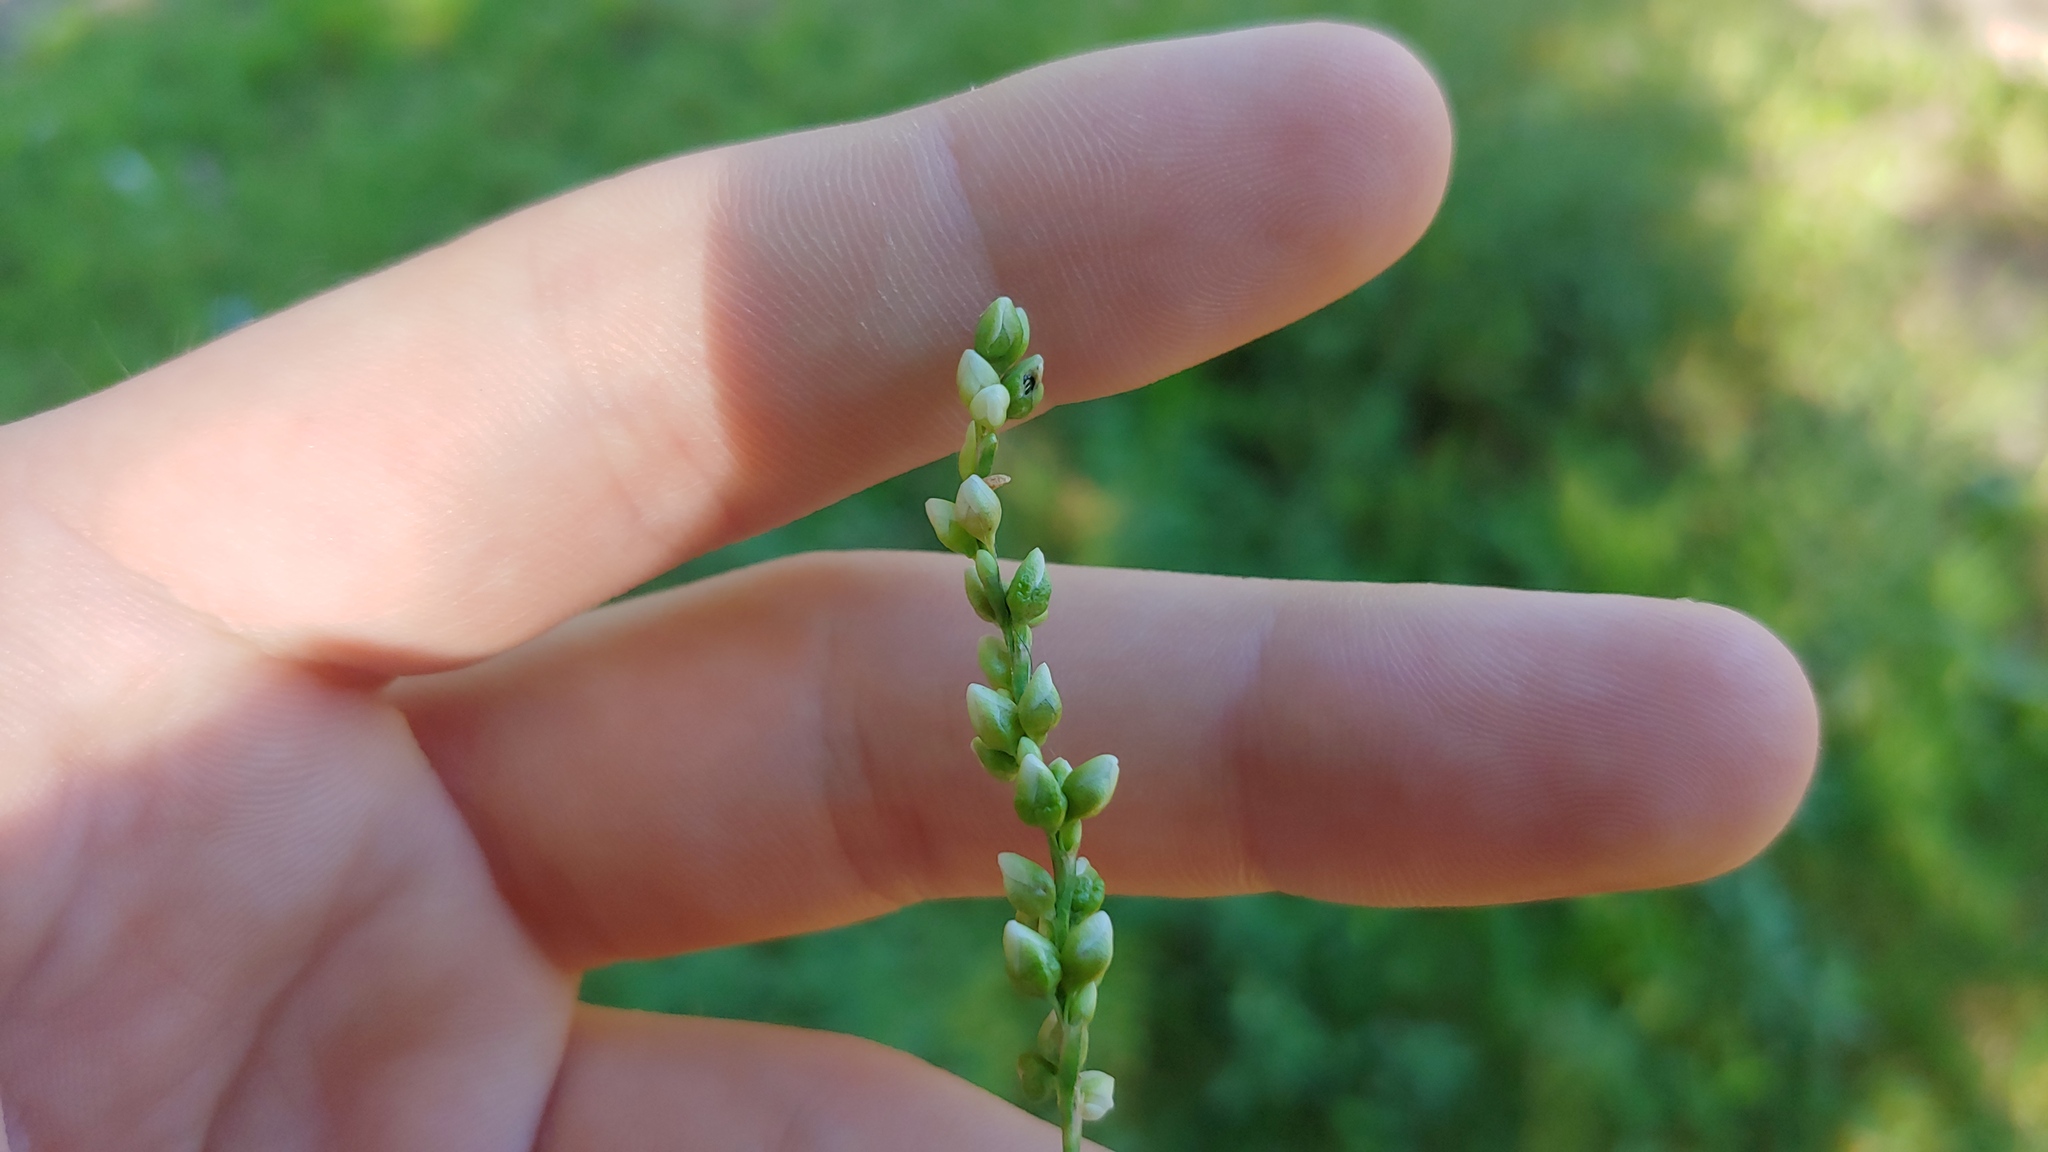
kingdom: Plantae
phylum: Tracheophyta
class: Magnoliopsida
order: Caryophyllales
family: Polygonaceae
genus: Persicaria
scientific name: Persicaria punctata
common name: Dotted smartweed
